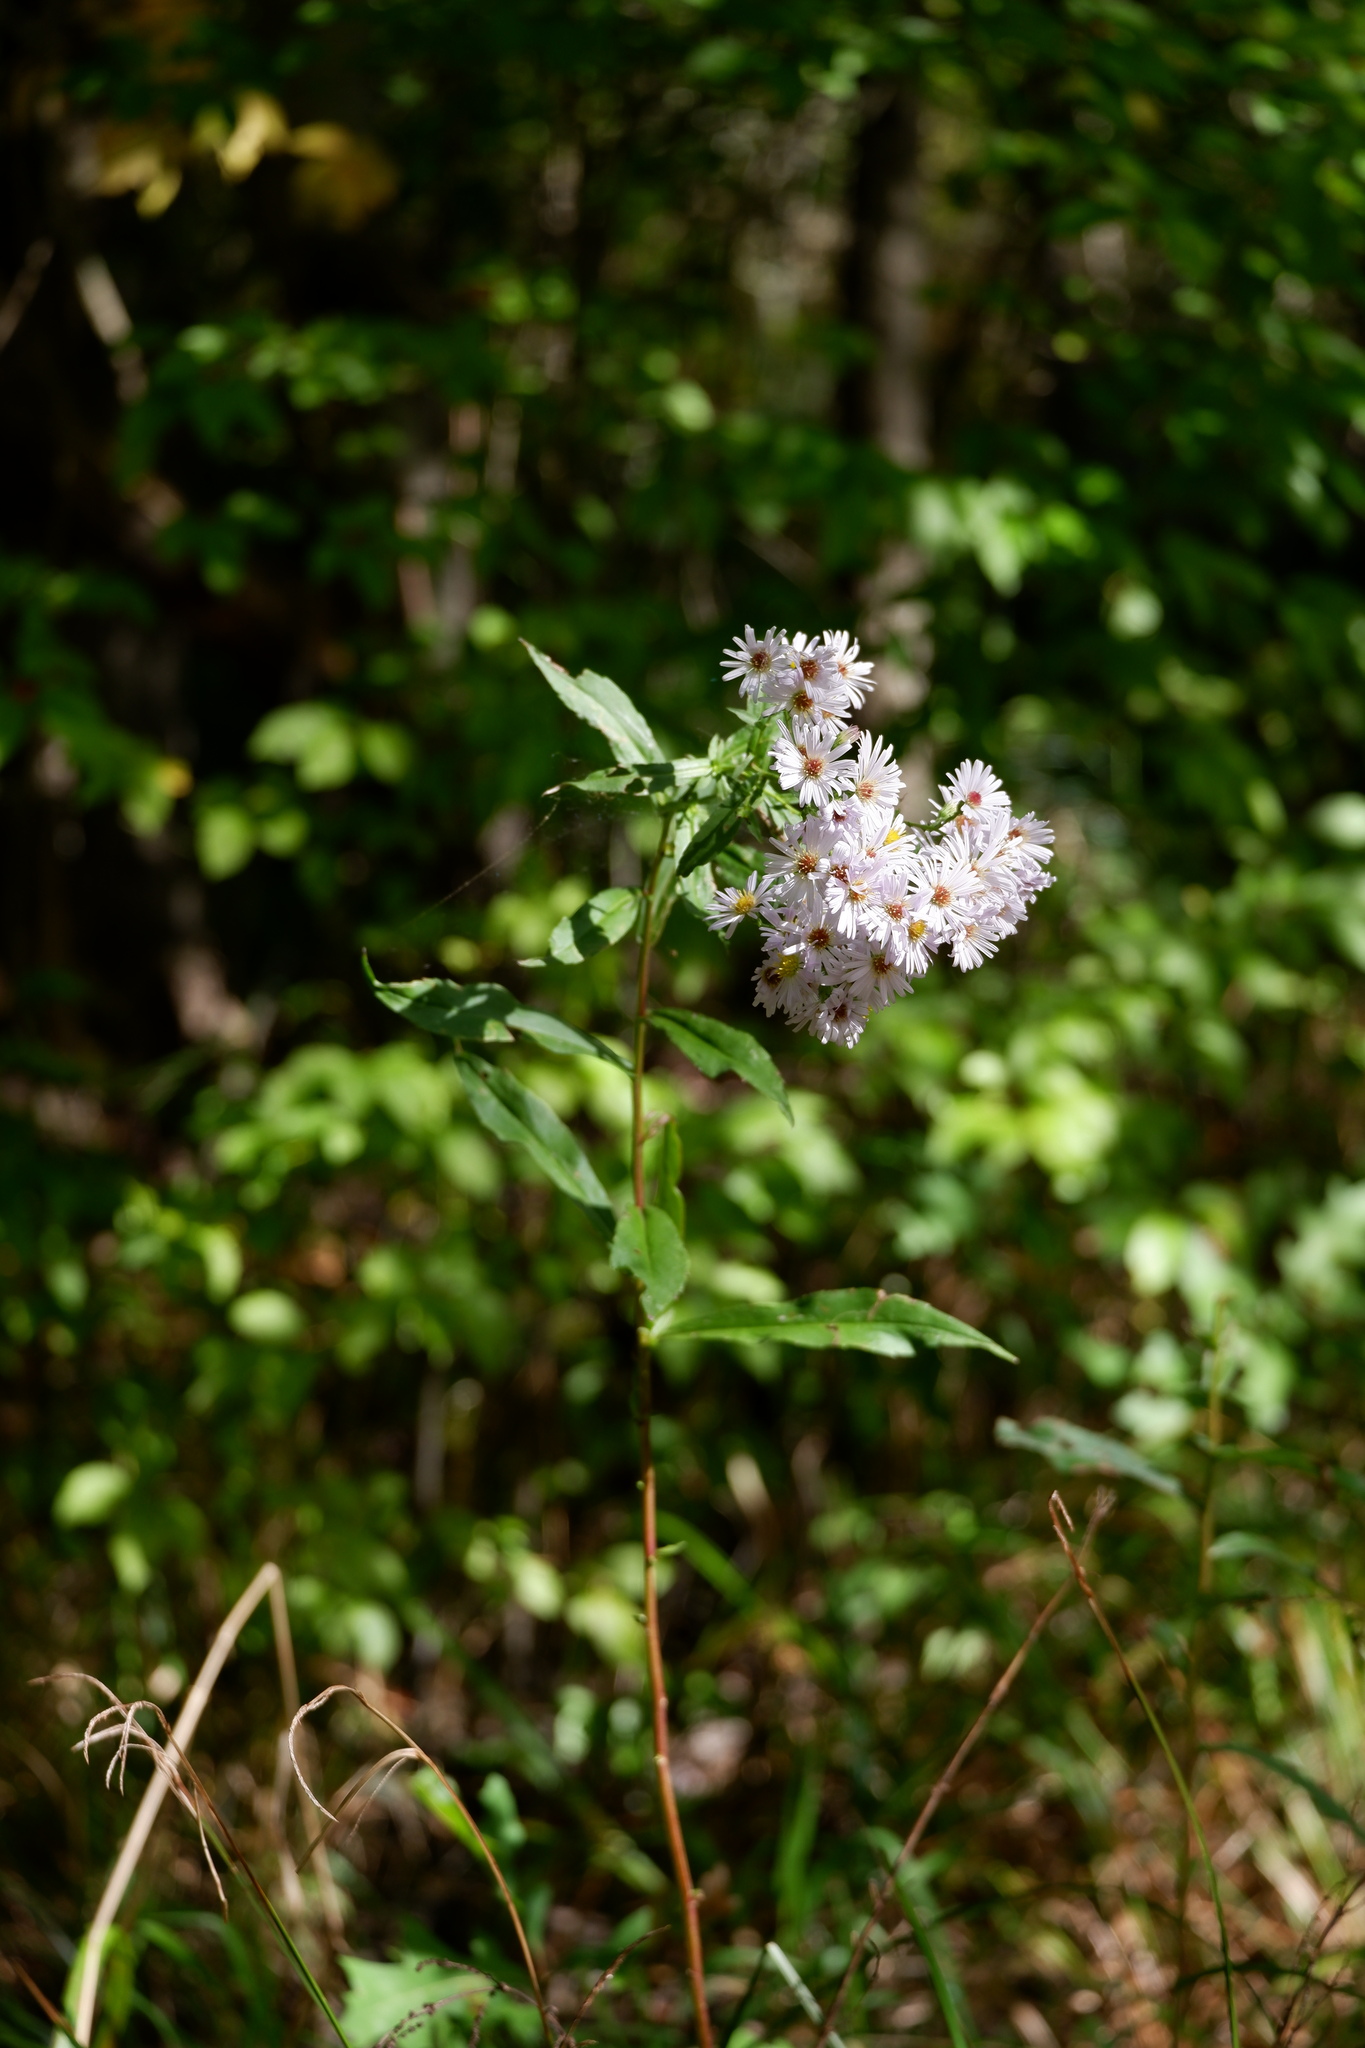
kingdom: Plantae
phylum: Tracheophyta
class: Magnoliopsida
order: Asterales
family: Asteraceae
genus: Symphyotrichum
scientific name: Symphyotrichum novi-belgii
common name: Michaelmas daisy
